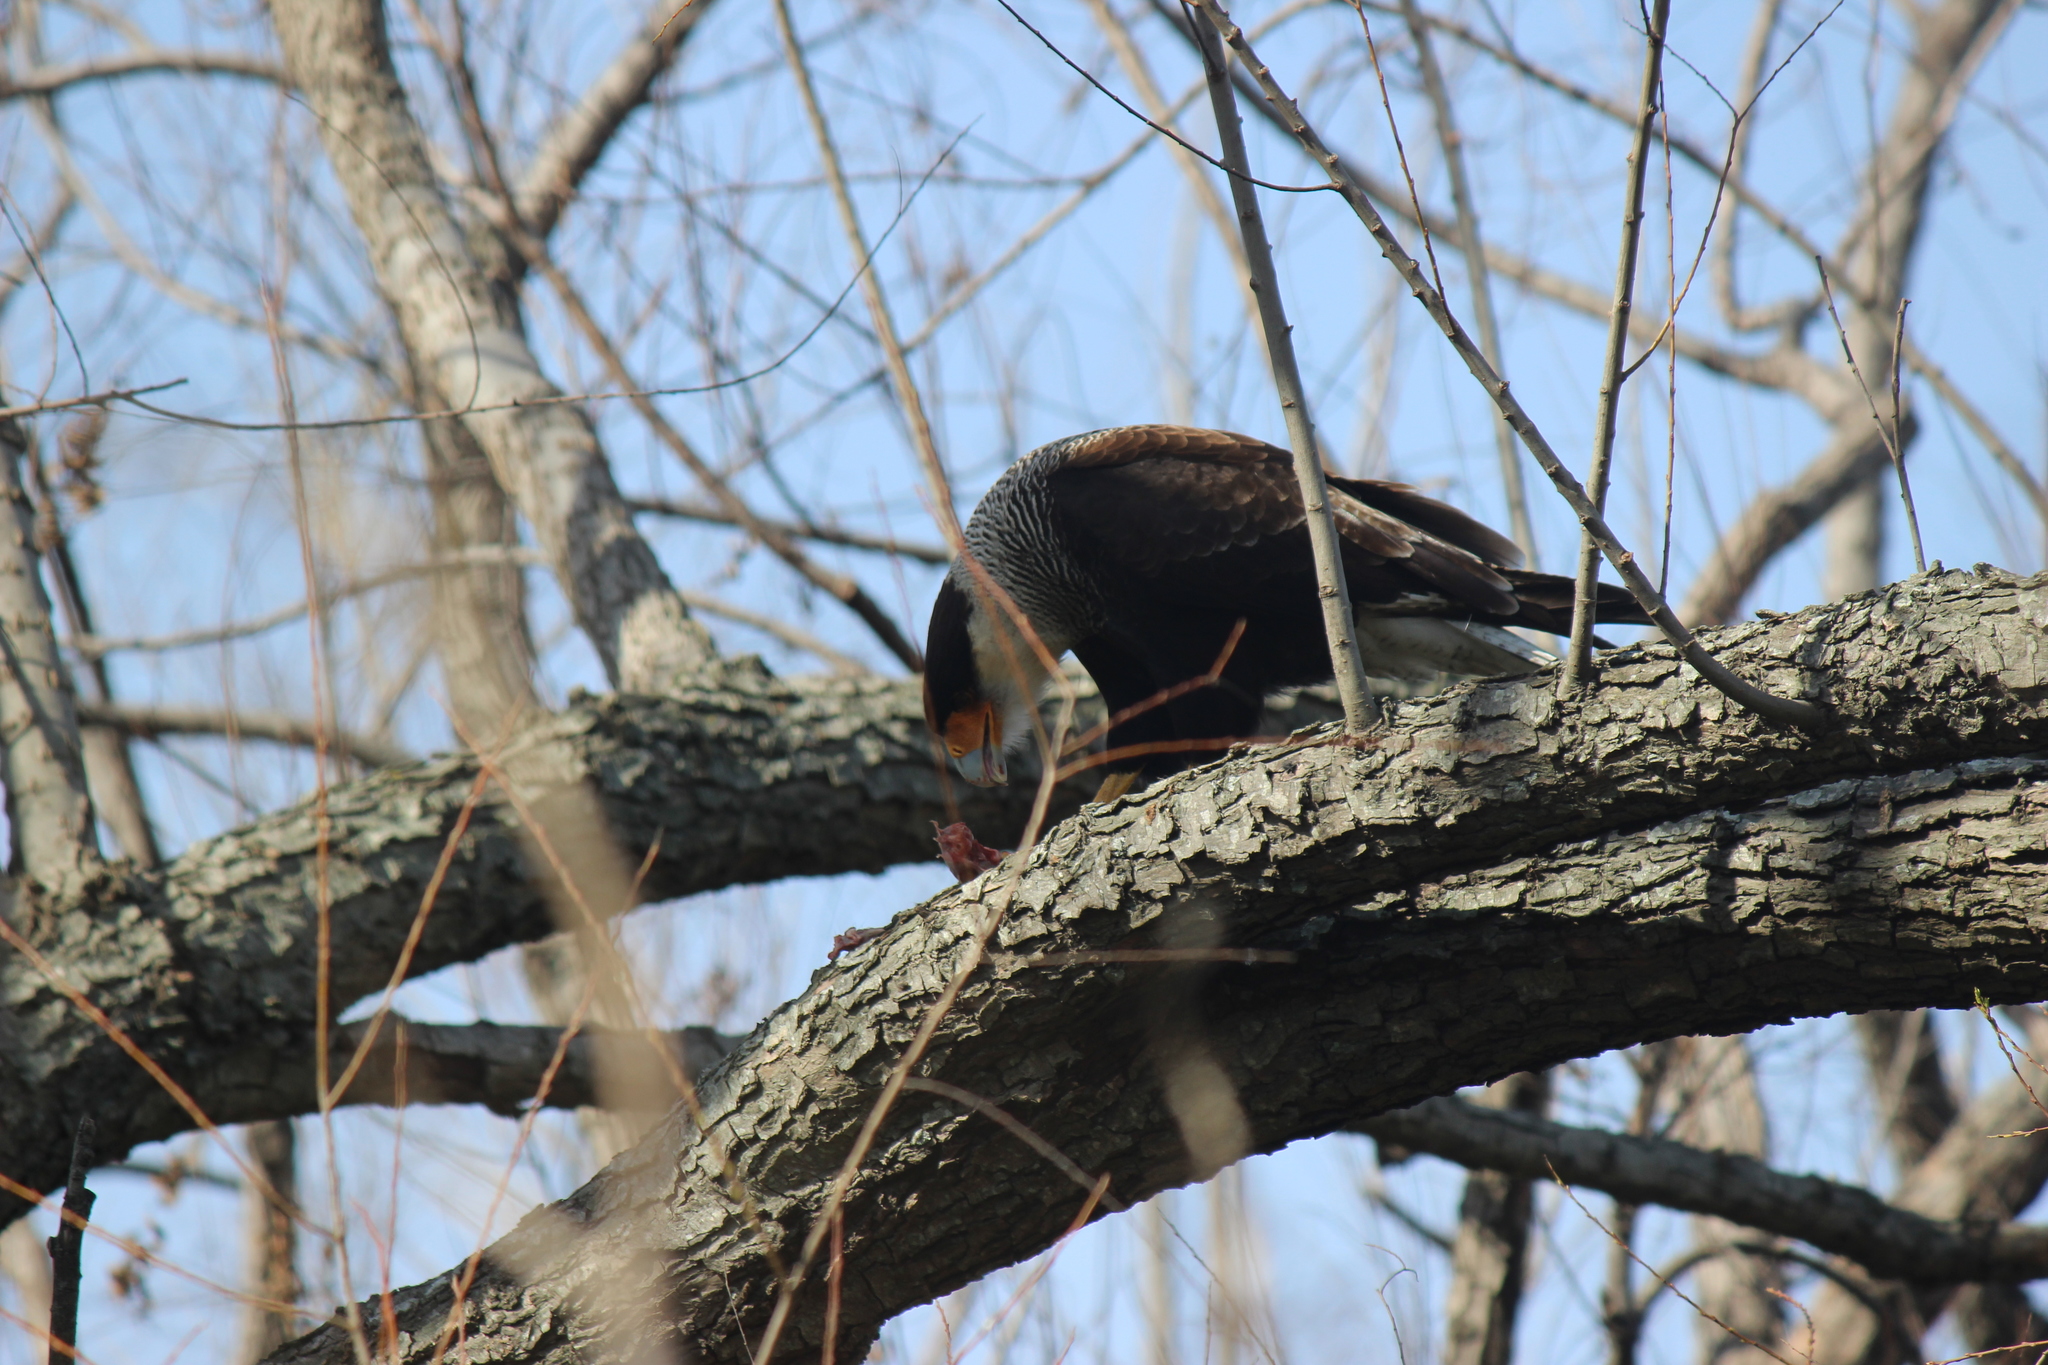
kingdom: Animalia
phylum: Chordata
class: Aves
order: Falconiformes
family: Falconidae
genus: Caracara
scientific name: Caracara plancus
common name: Southern caracara
